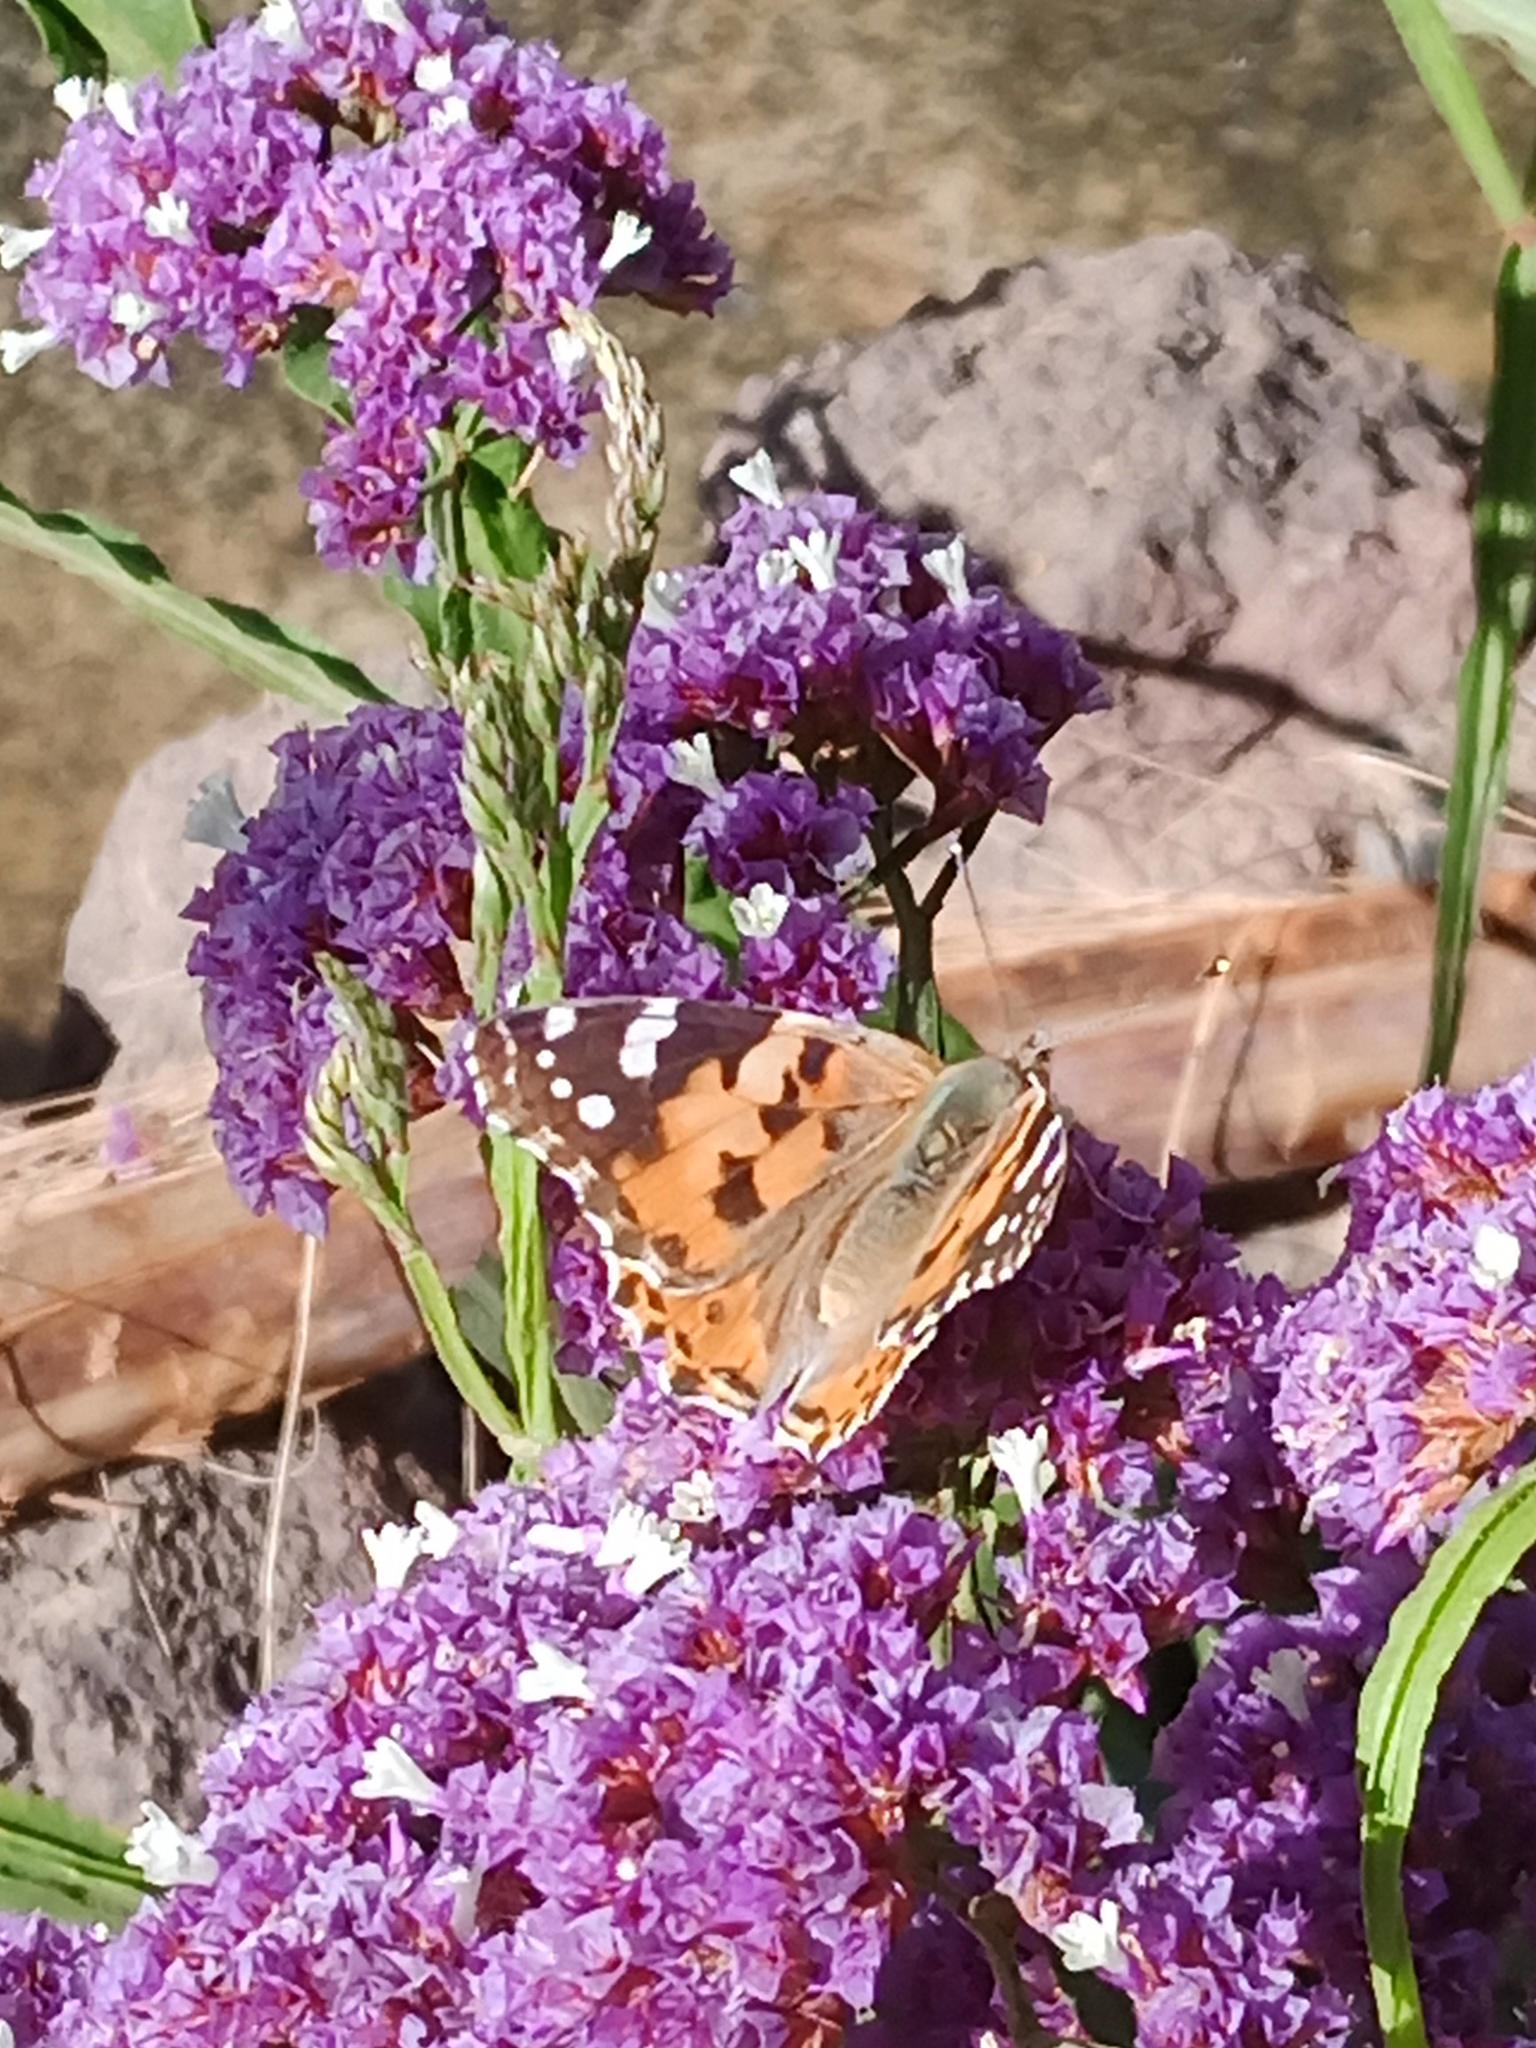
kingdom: Animalia
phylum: Arthropoda
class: Insecta
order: Lepidoptera
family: Nymphalidae
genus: Vanessa
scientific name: Vanessa cardui
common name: Painted lady
